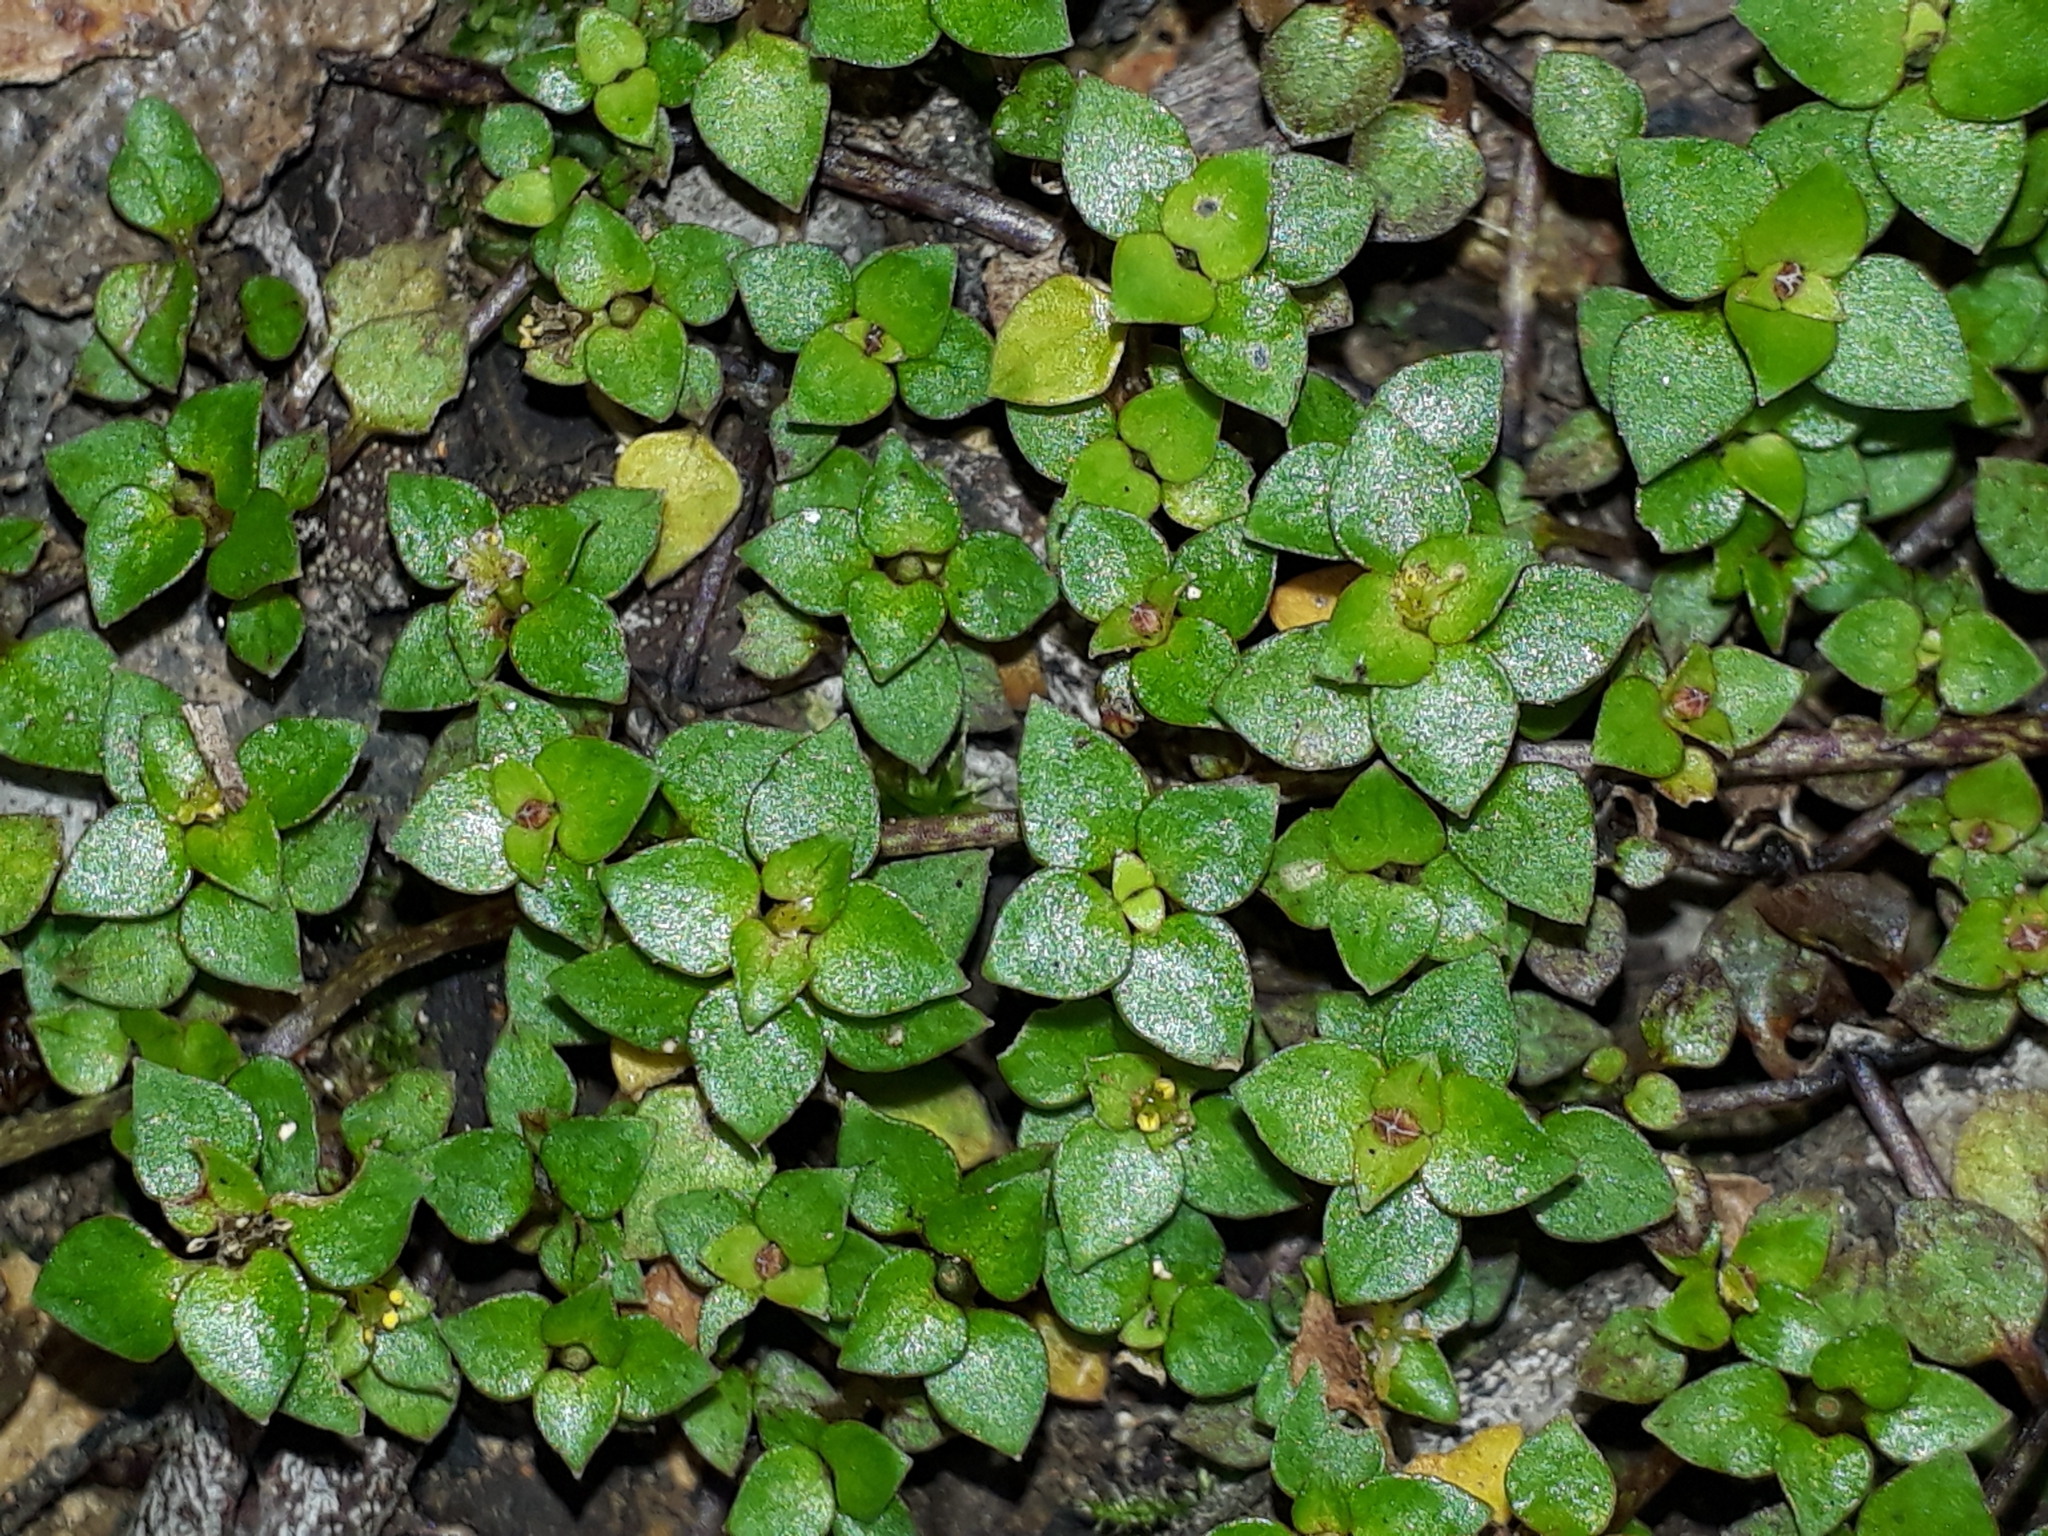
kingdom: Plantae
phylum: Tracheophyta
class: Magnoliopsida
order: Gentianales
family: Rubiaceae
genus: Nertera
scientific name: Nertera granadensis
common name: Beadplant
